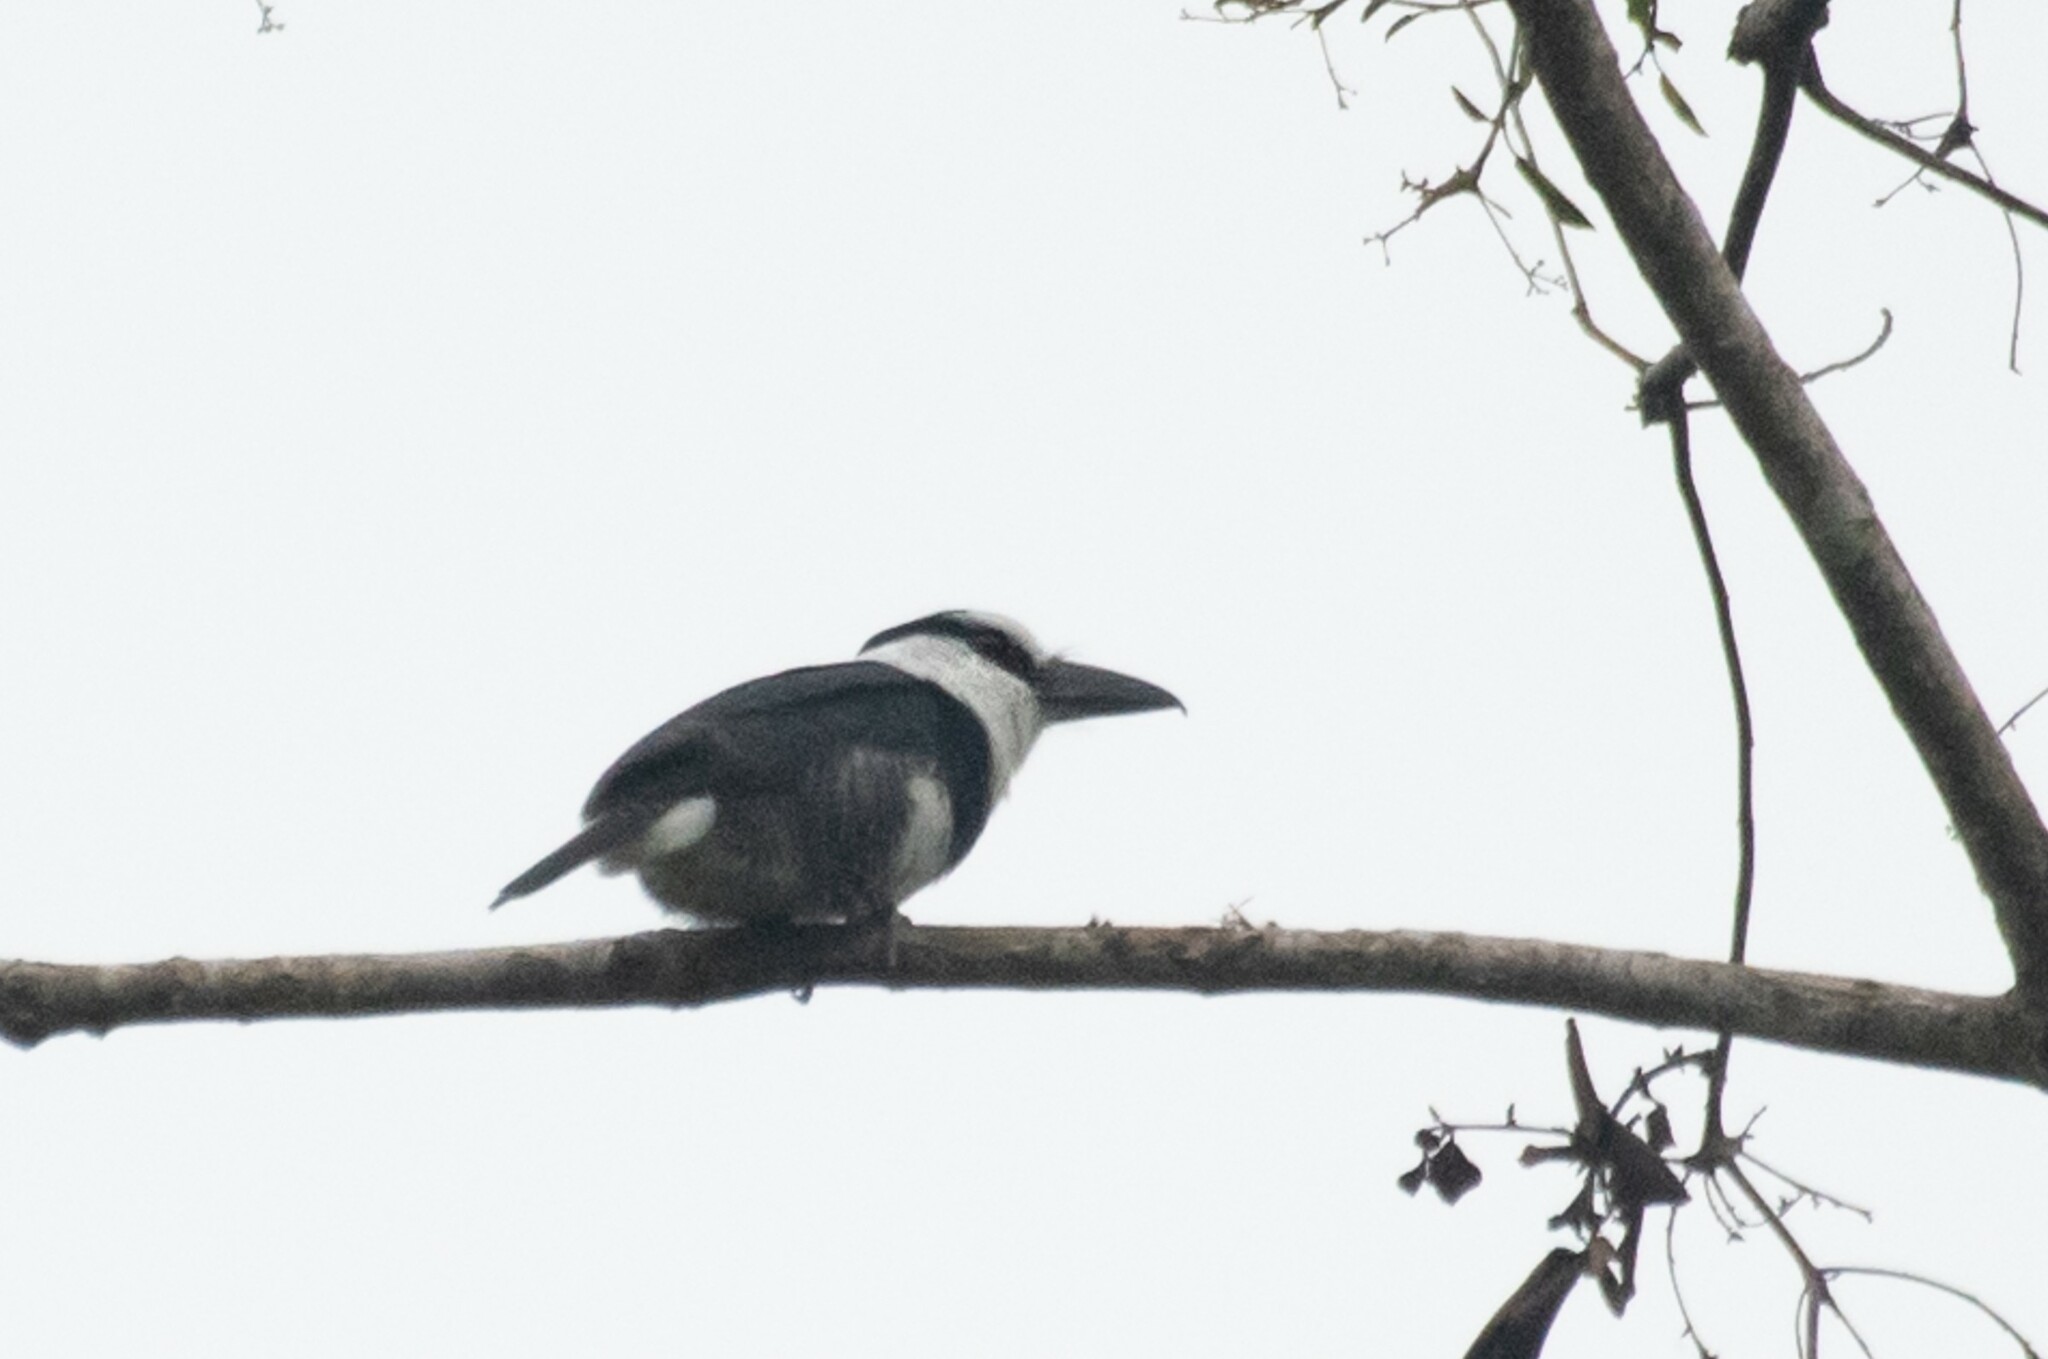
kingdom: Animalia
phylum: Chordata
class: Aves
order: Piciformes
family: Bucconidae
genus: Notharchus
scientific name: Notharchus hyperrhynchus
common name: White-necked puffbird
